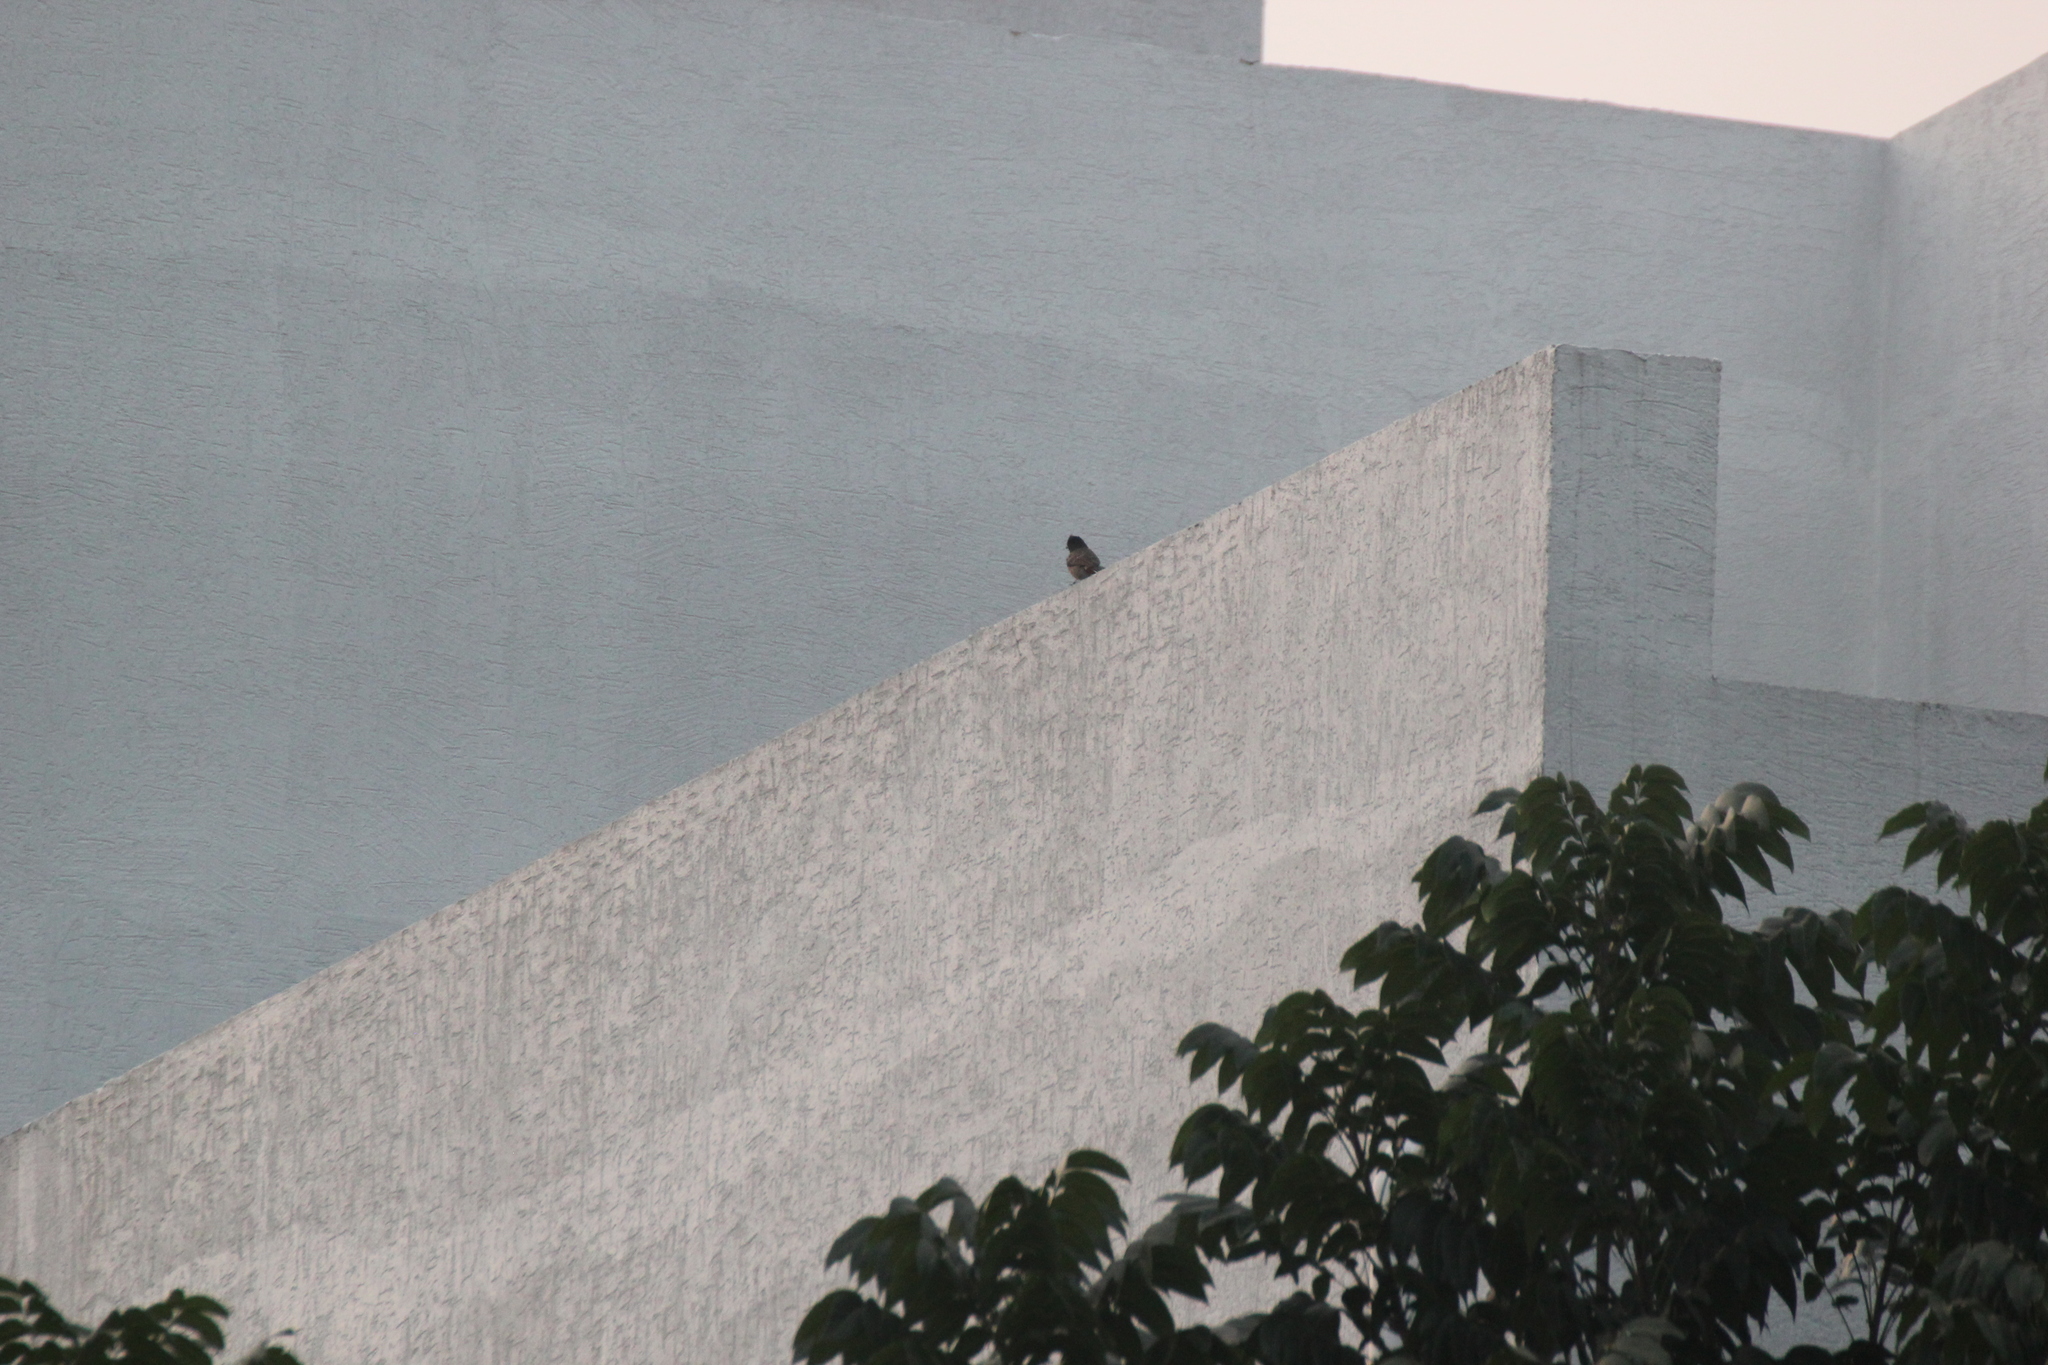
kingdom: Animalia
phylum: Chordata
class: Aves
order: Passeriformes
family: Pycnonotidae
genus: Pycnonotus
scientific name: Pycnonotus cafer
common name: Red-vented bulbul
